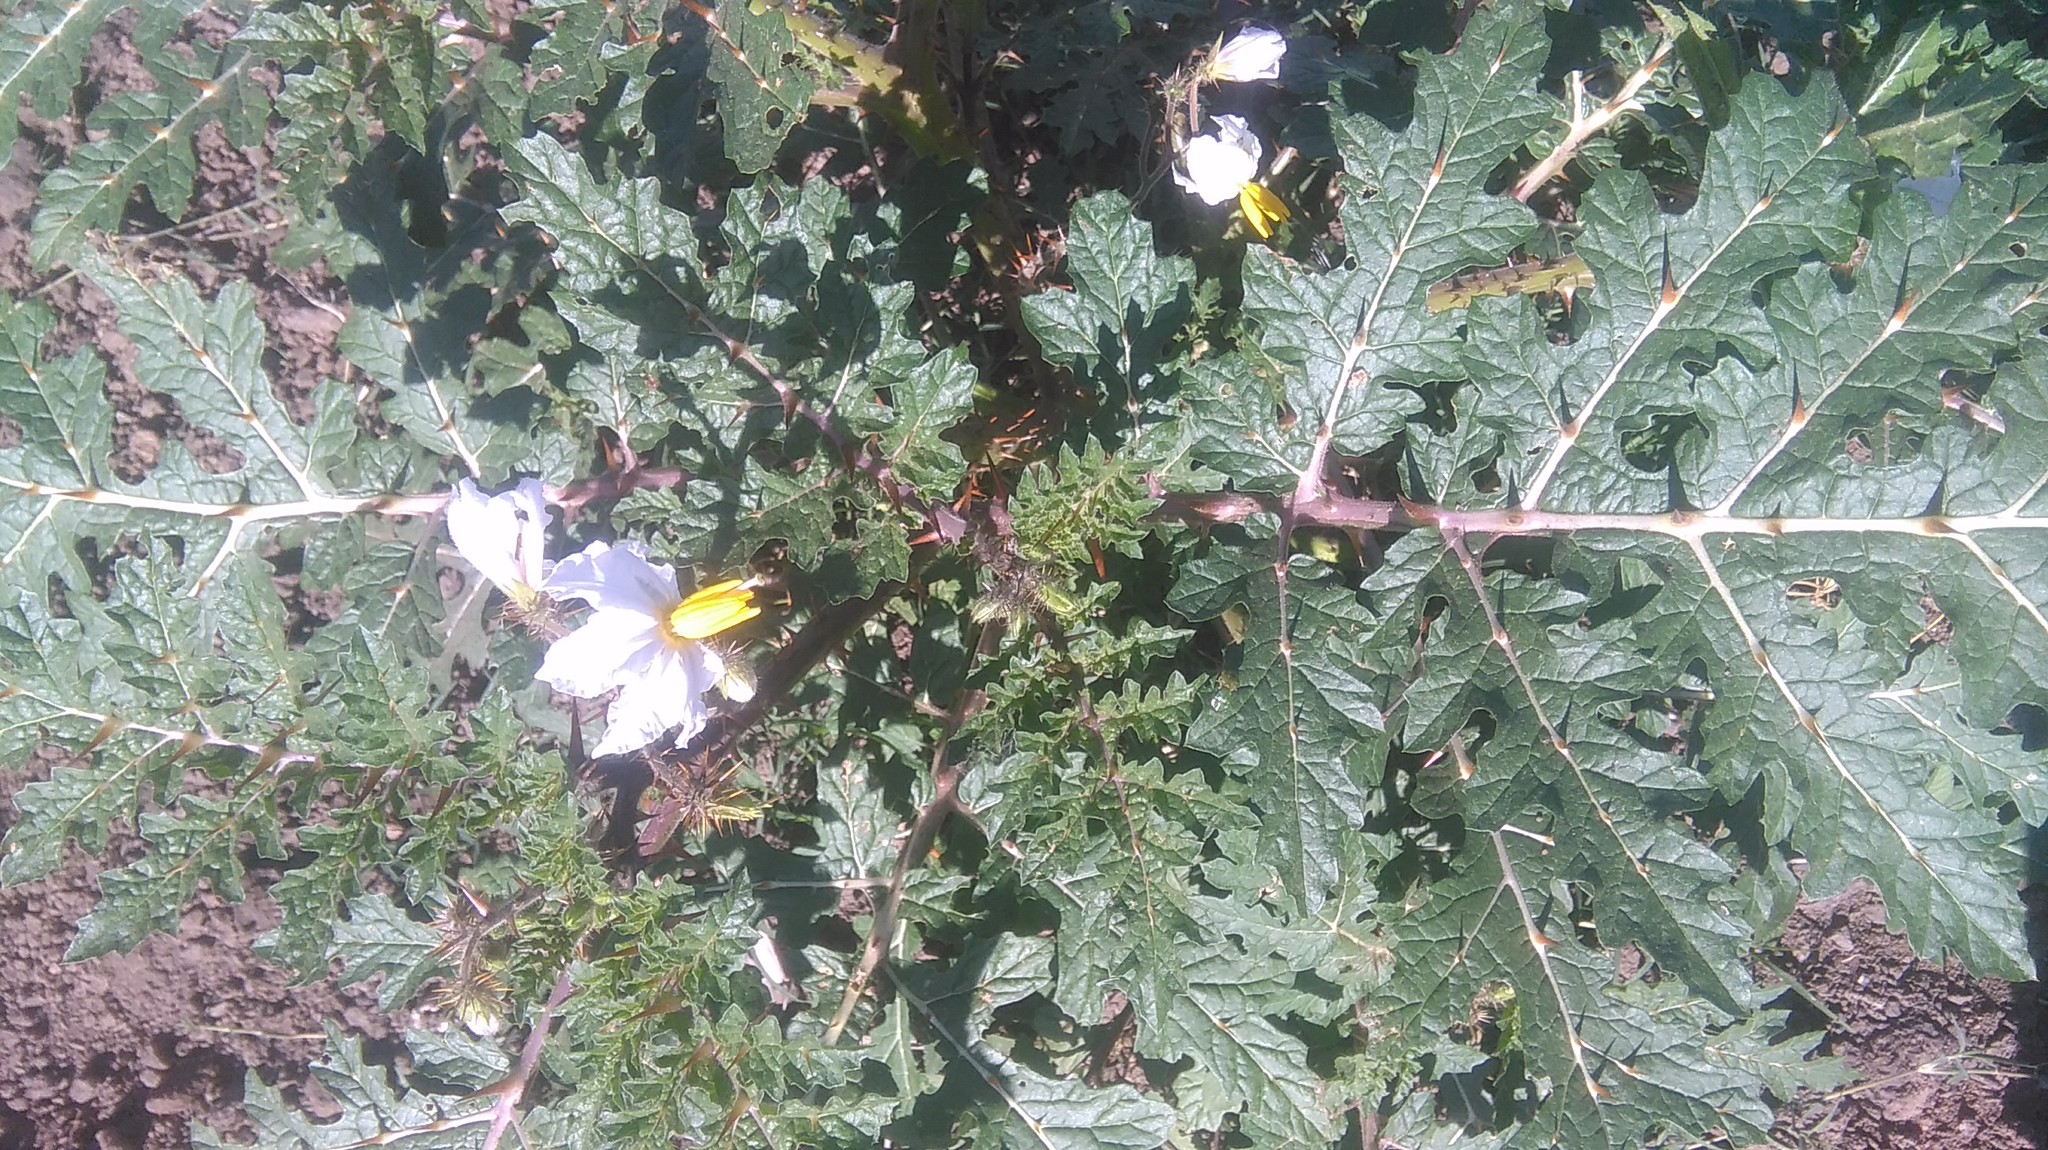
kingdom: Plantae
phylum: Tracheophyta
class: Magnoliopsida
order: Solanales
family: Solanaceae
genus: Solanum
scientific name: Solanum sisymbriifolium
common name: Red buffalo-bur
